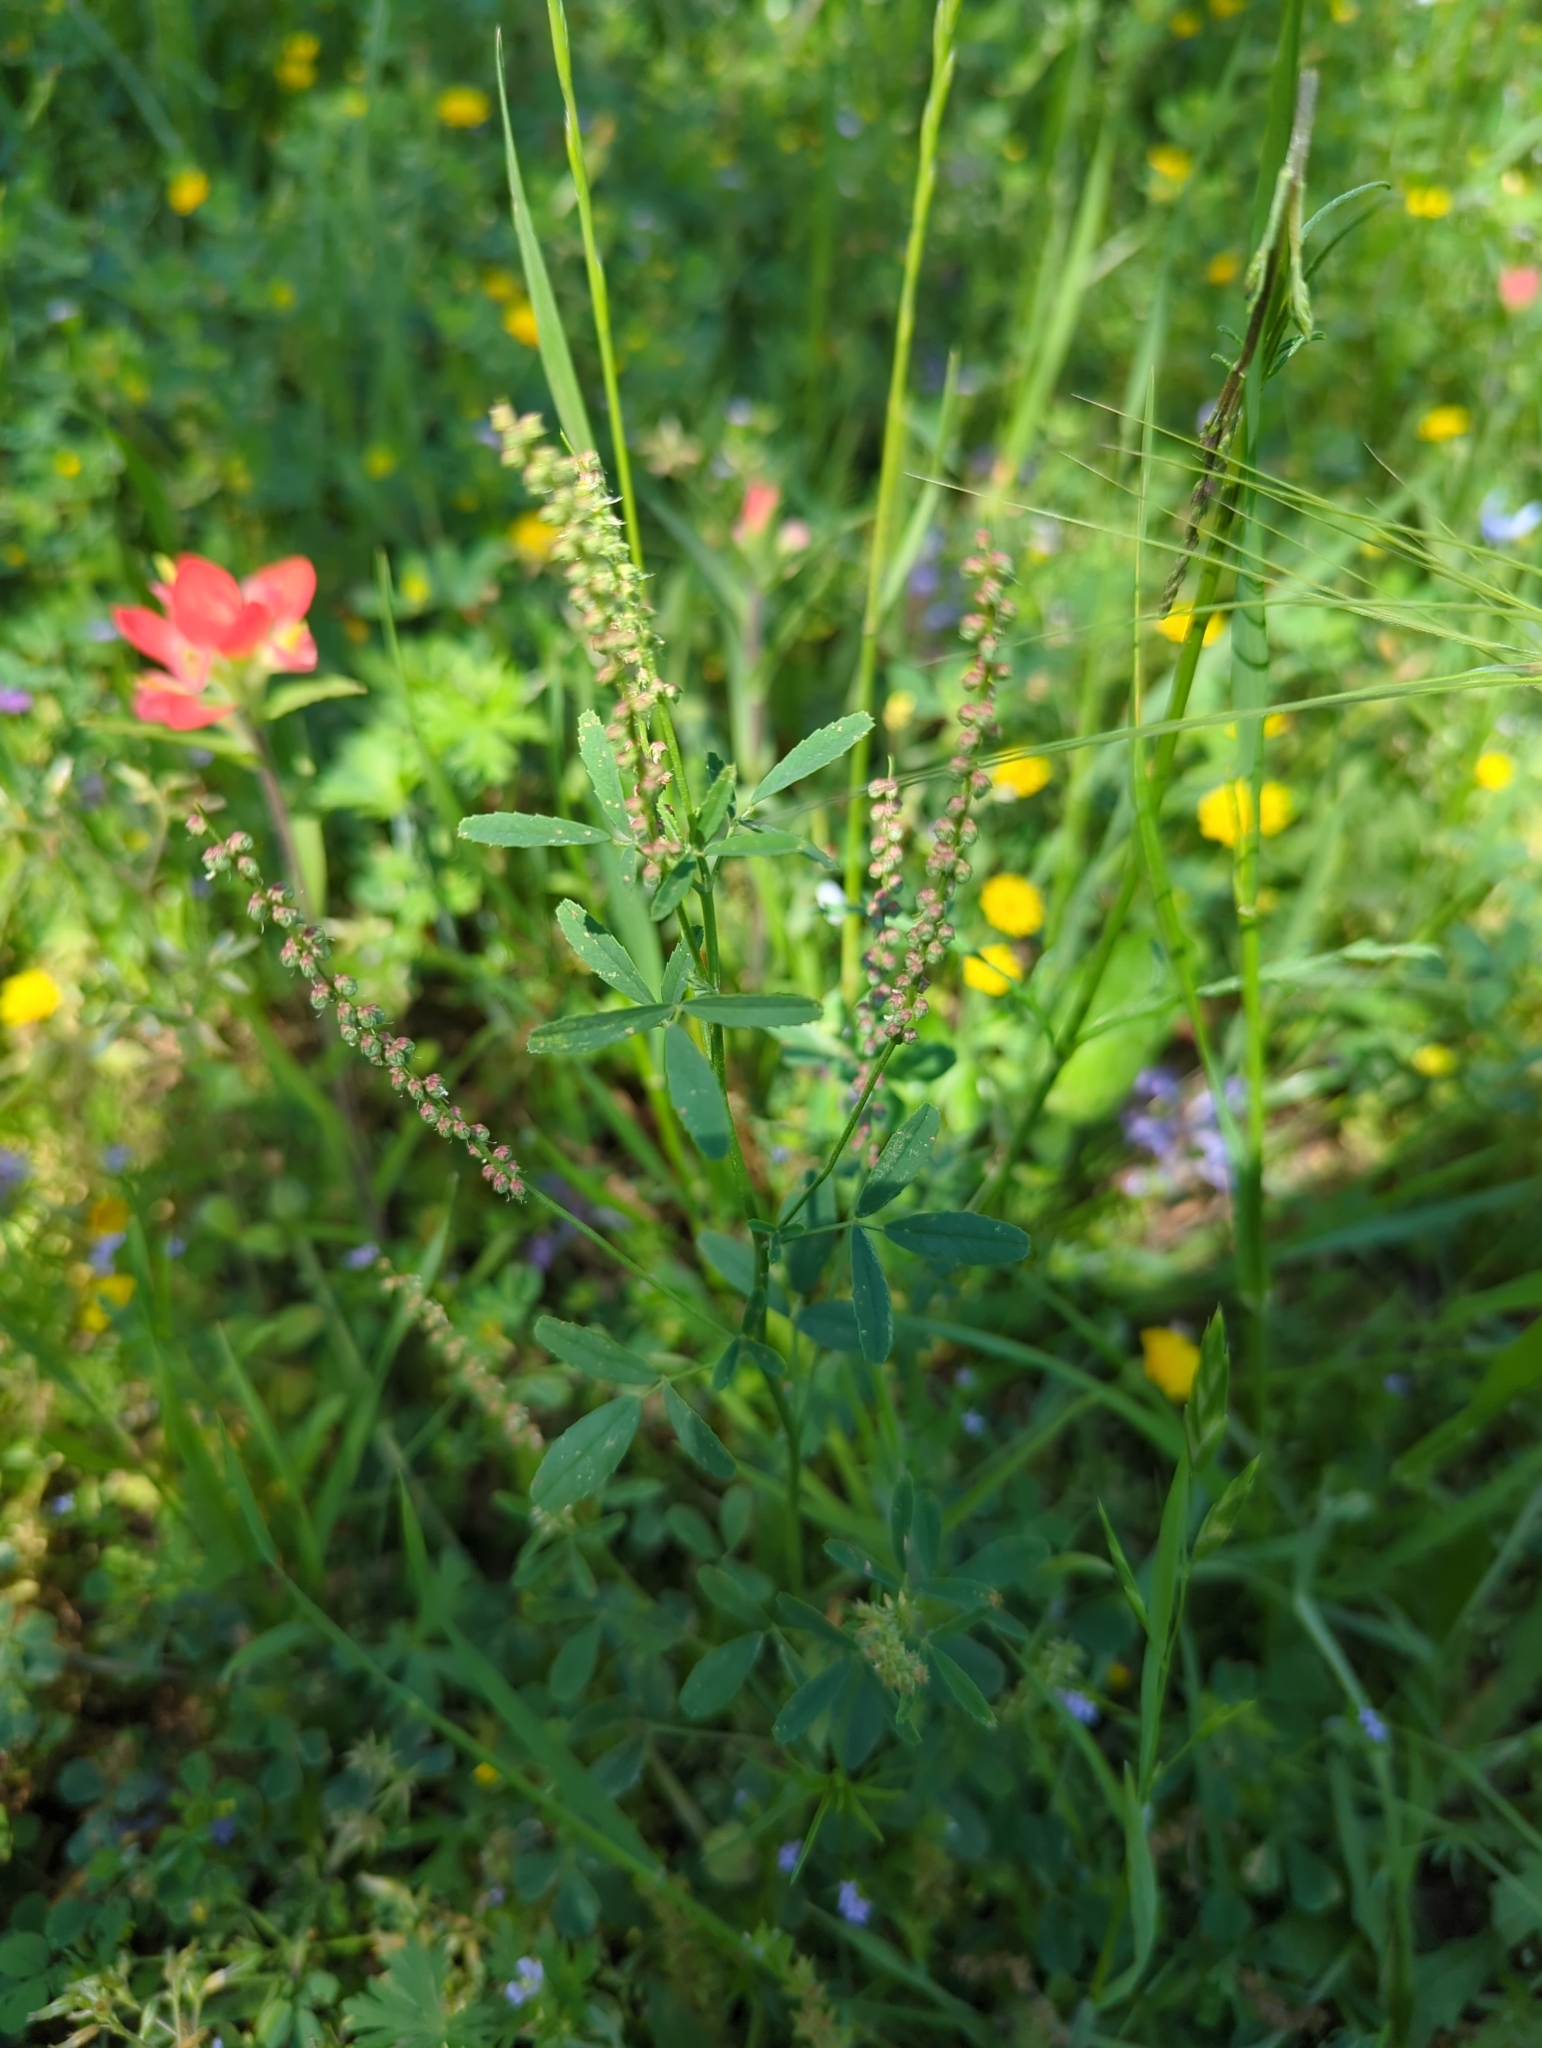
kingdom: Plantae
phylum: Tracheophyta
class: Magnoliopsida
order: Fabales
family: Fabaceae
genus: Melilotus
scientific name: Melilotus indicus
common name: Small melilot
